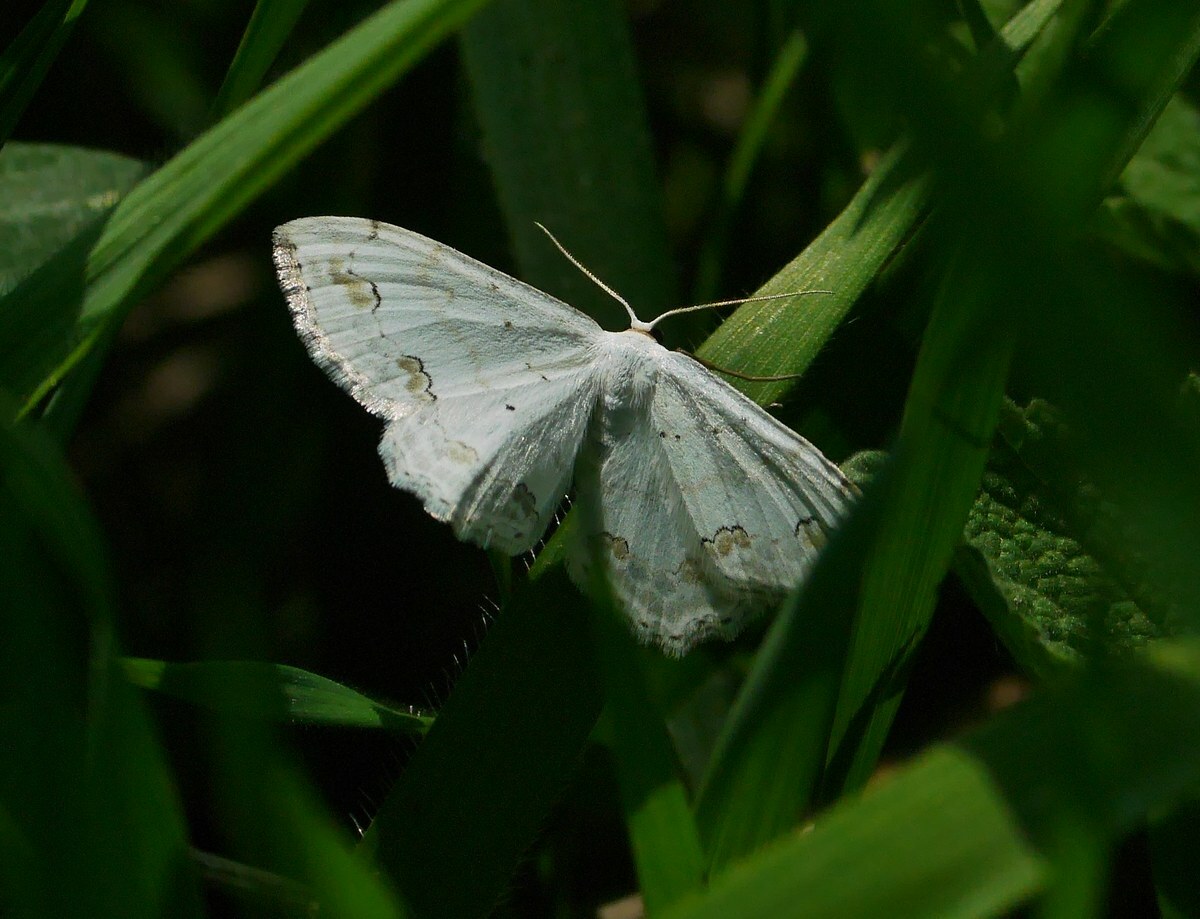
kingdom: Animalia
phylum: Arthropoda
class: Insecta
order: Lepidoptera
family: Geometridae
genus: Scopula
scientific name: Scopula ornata
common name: Lace border
